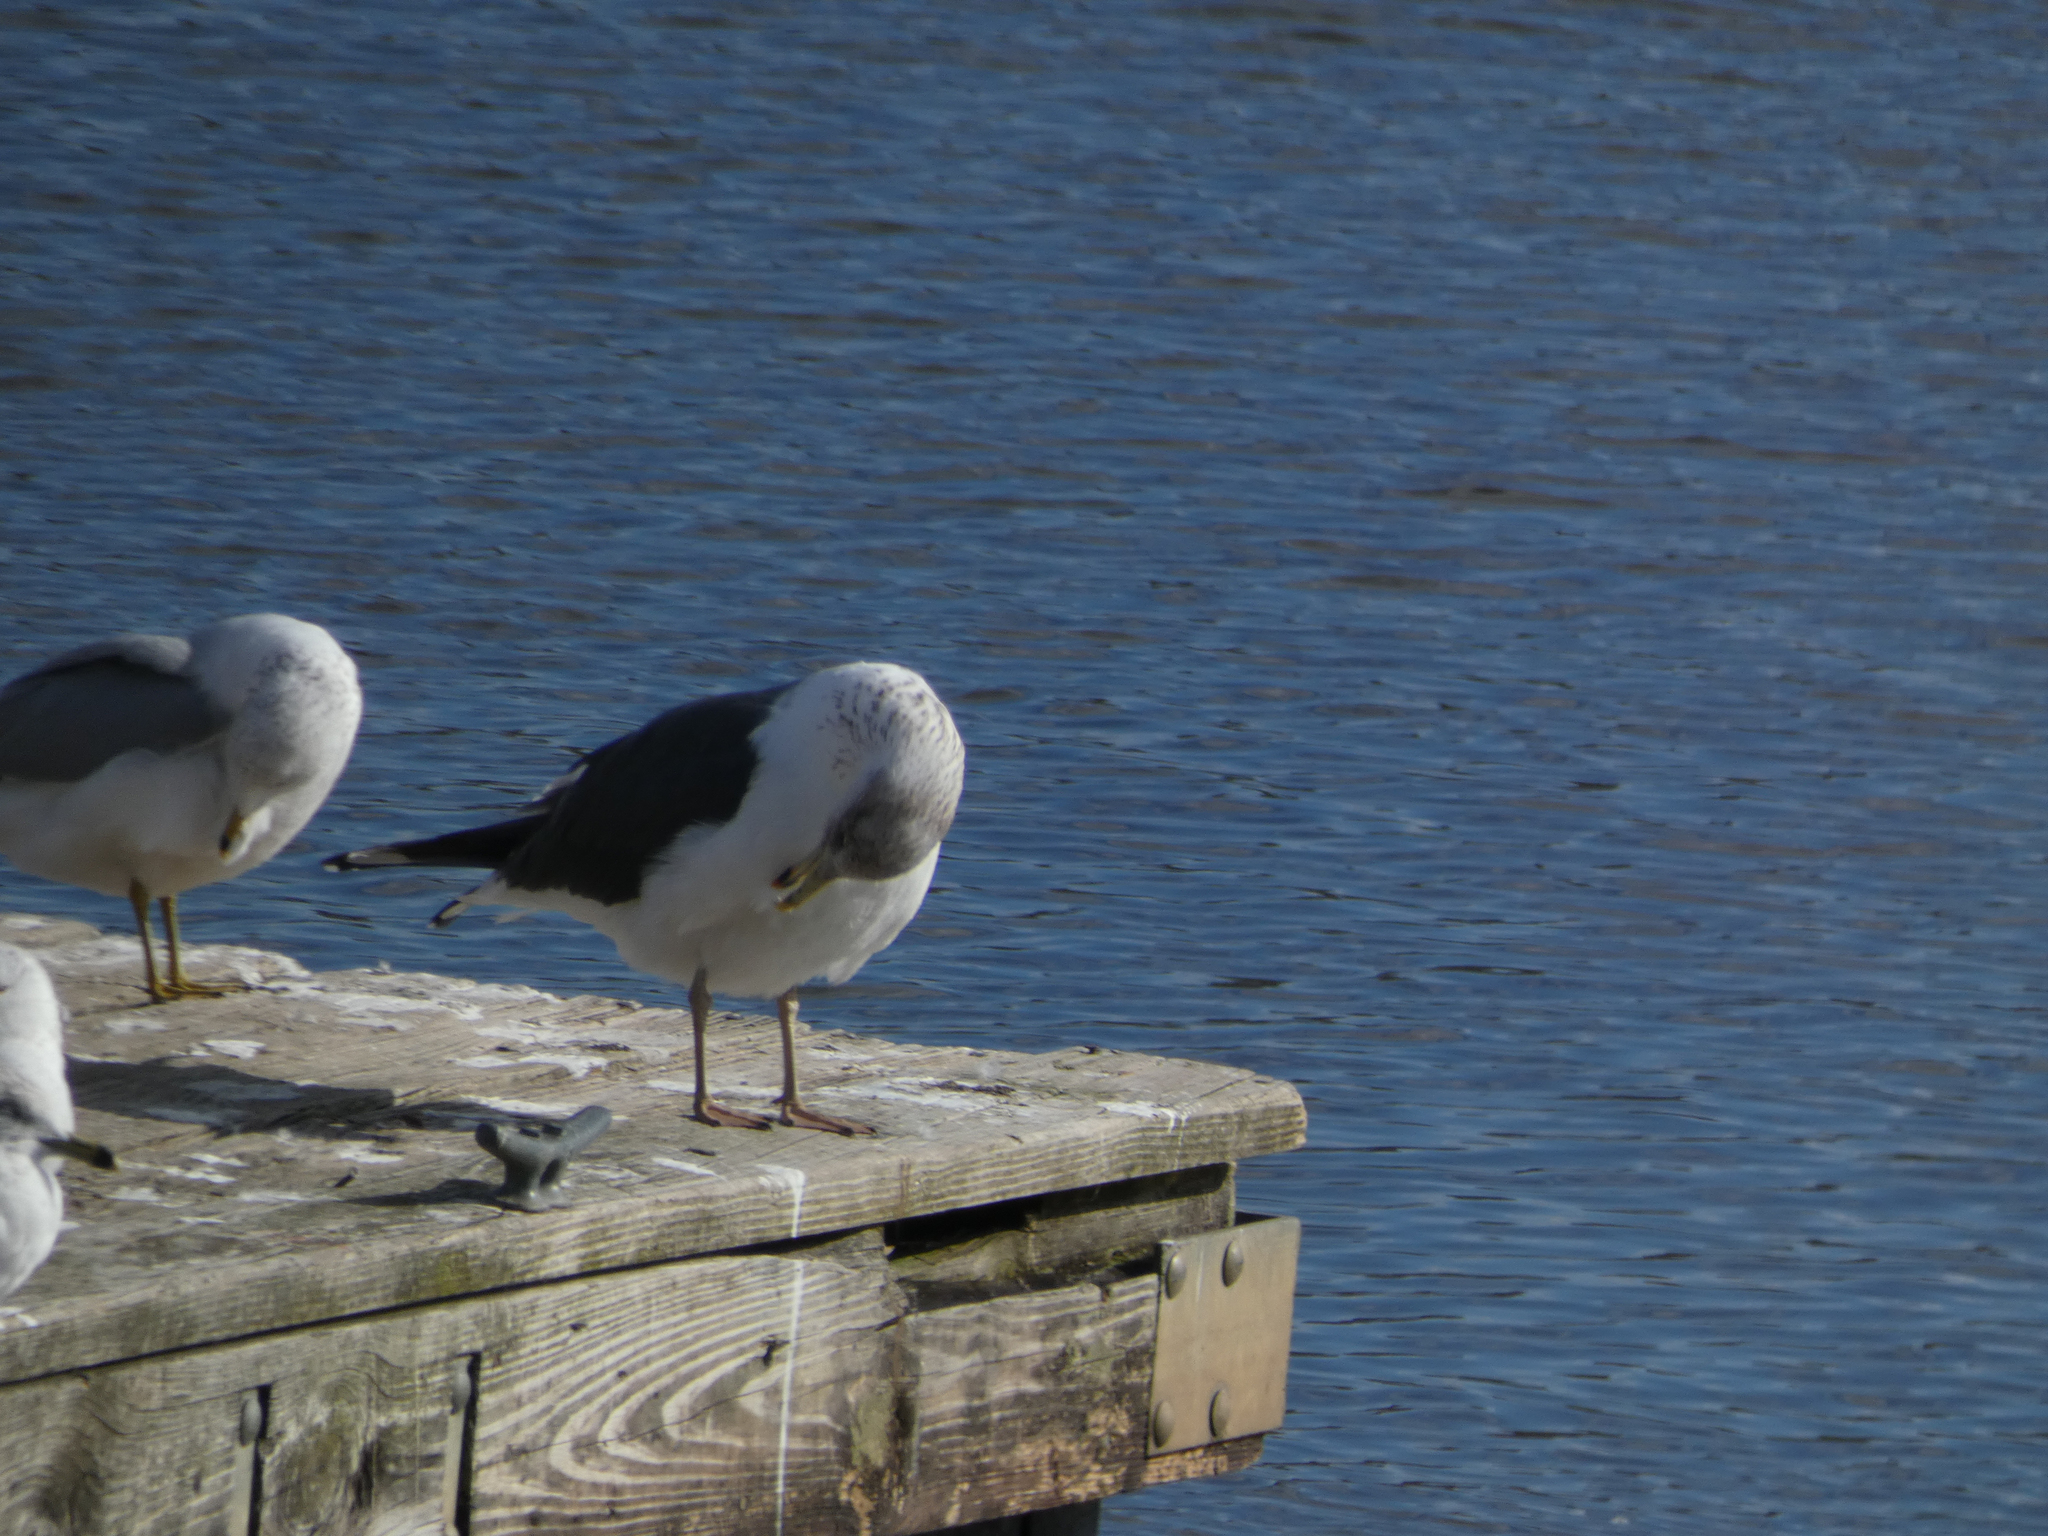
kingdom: Animalia
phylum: Chordata
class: Aves
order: Charadriiformes
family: Laridae
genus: Larus
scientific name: Larus fuscus
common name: Lesser black-backed gull
